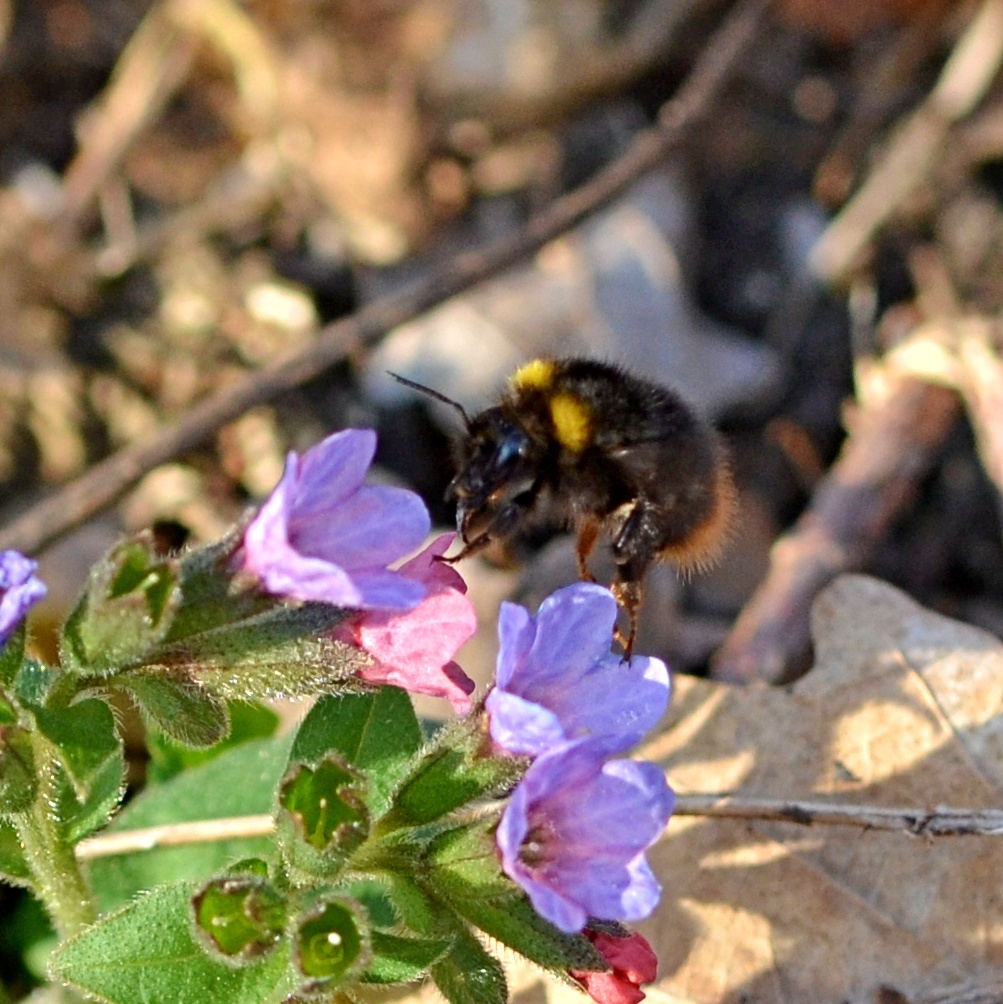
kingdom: Animalia
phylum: Arthropoda
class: Insecta
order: Hymenoptera
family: Apidae
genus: Bombus
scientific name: Bombus pratorum
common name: Early humble-bee
